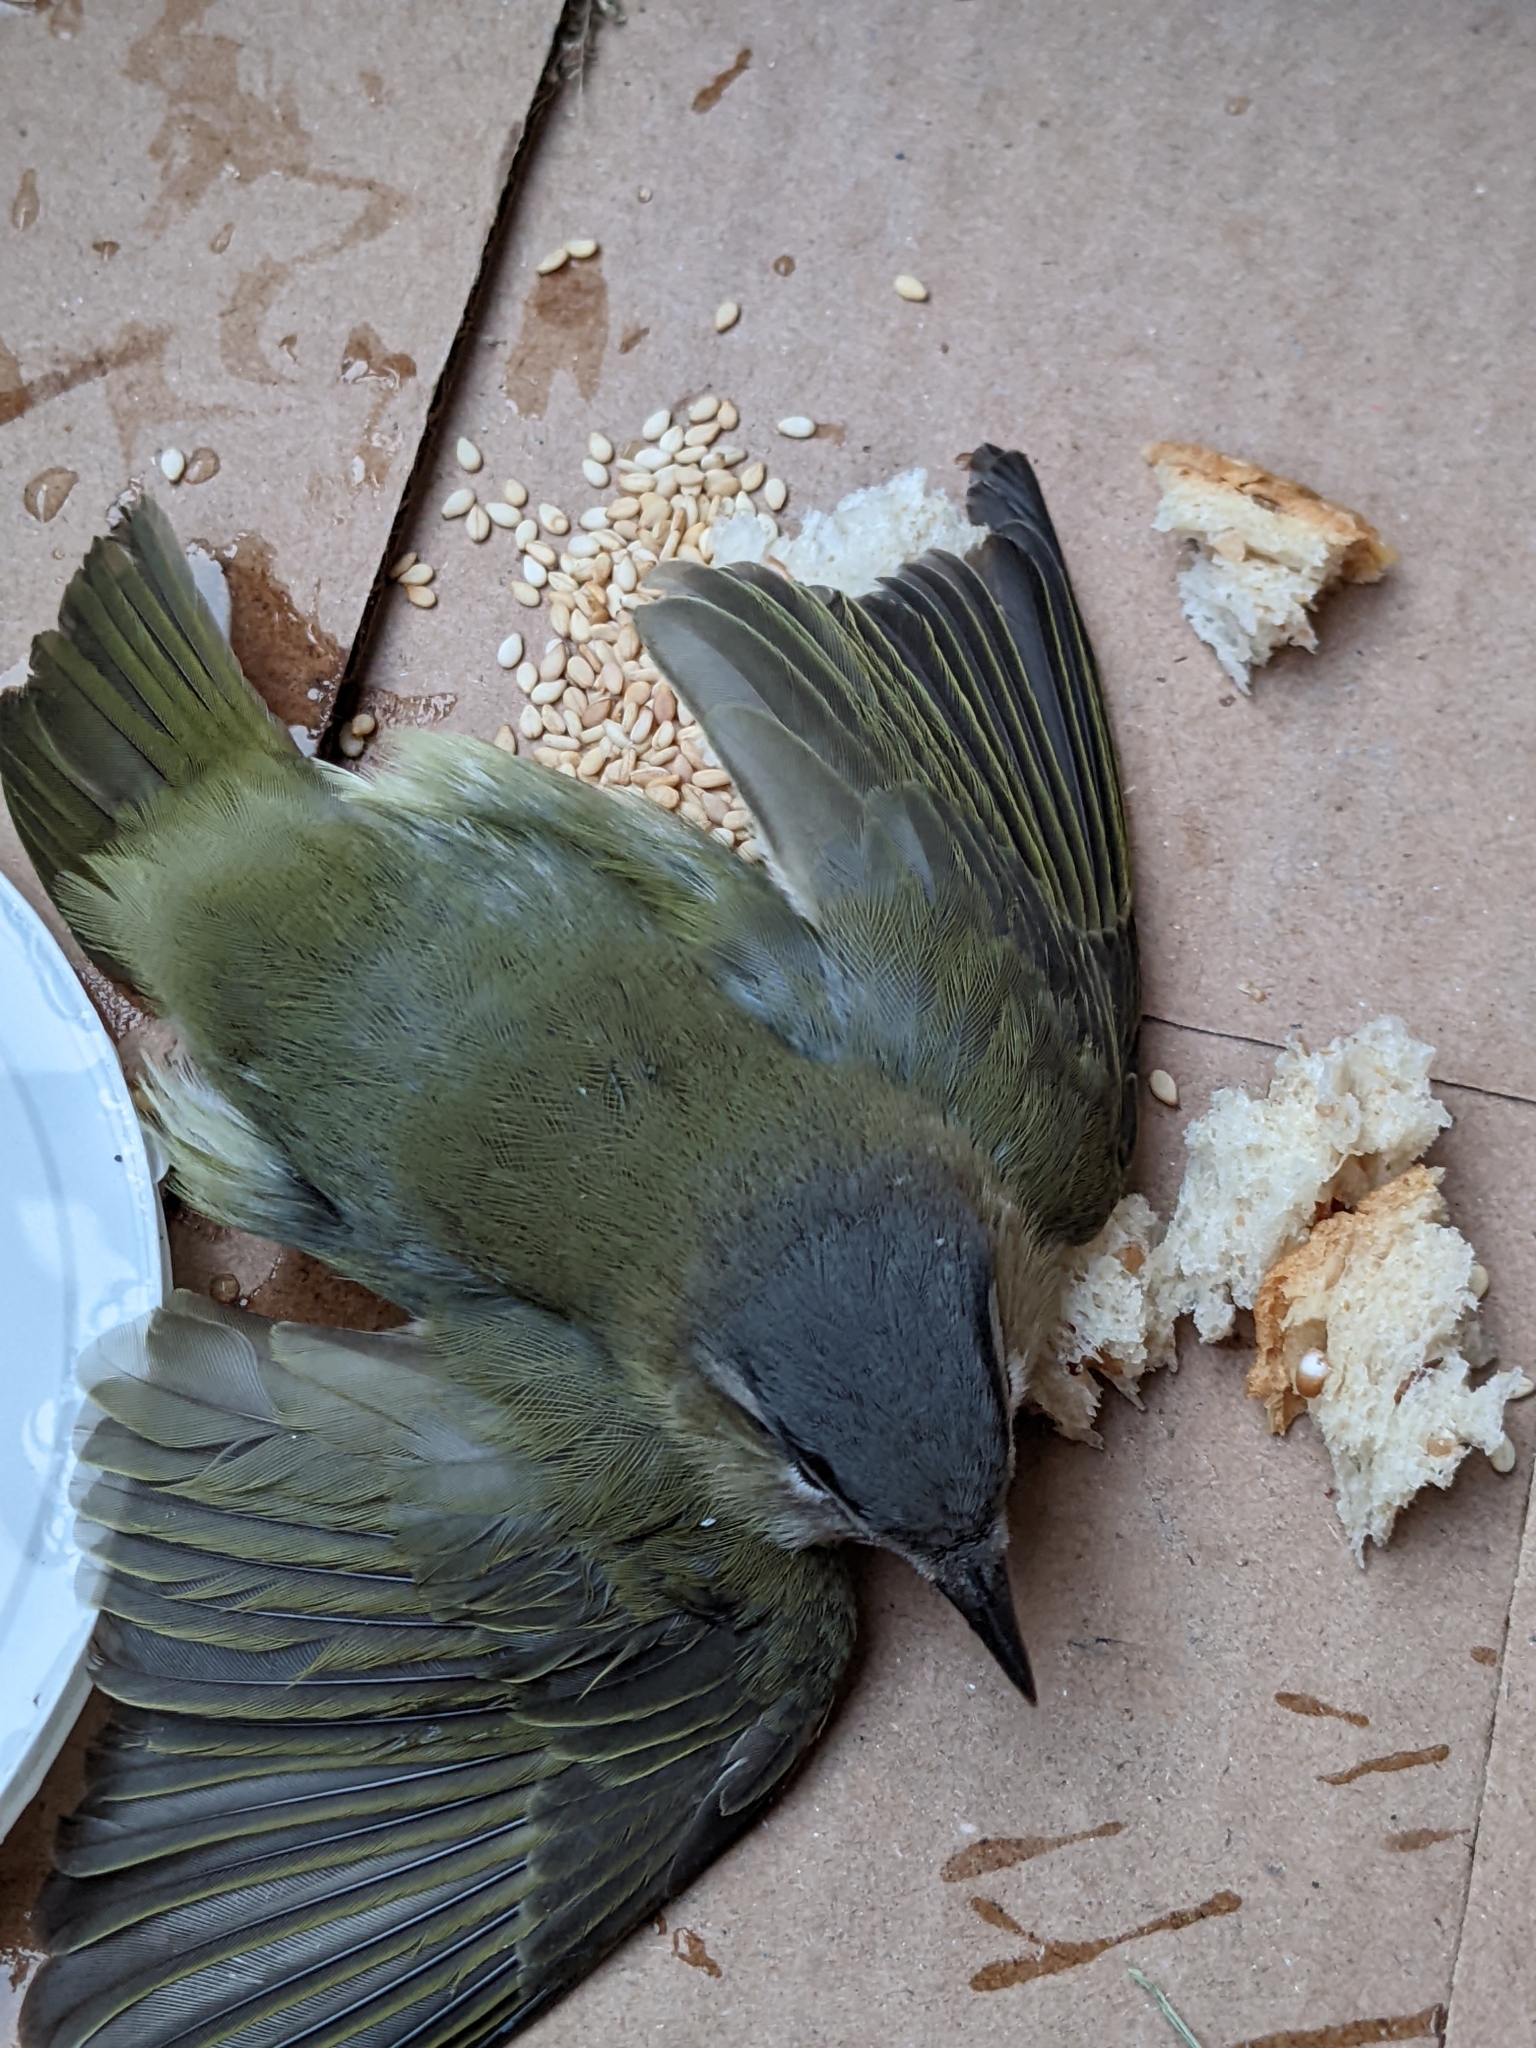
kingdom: Animalia
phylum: Chordata
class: Aves
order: Passeriformes
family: Vireonidae
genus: Vireo
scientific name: Vireo olivaceus
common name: Red-eyed vireo
